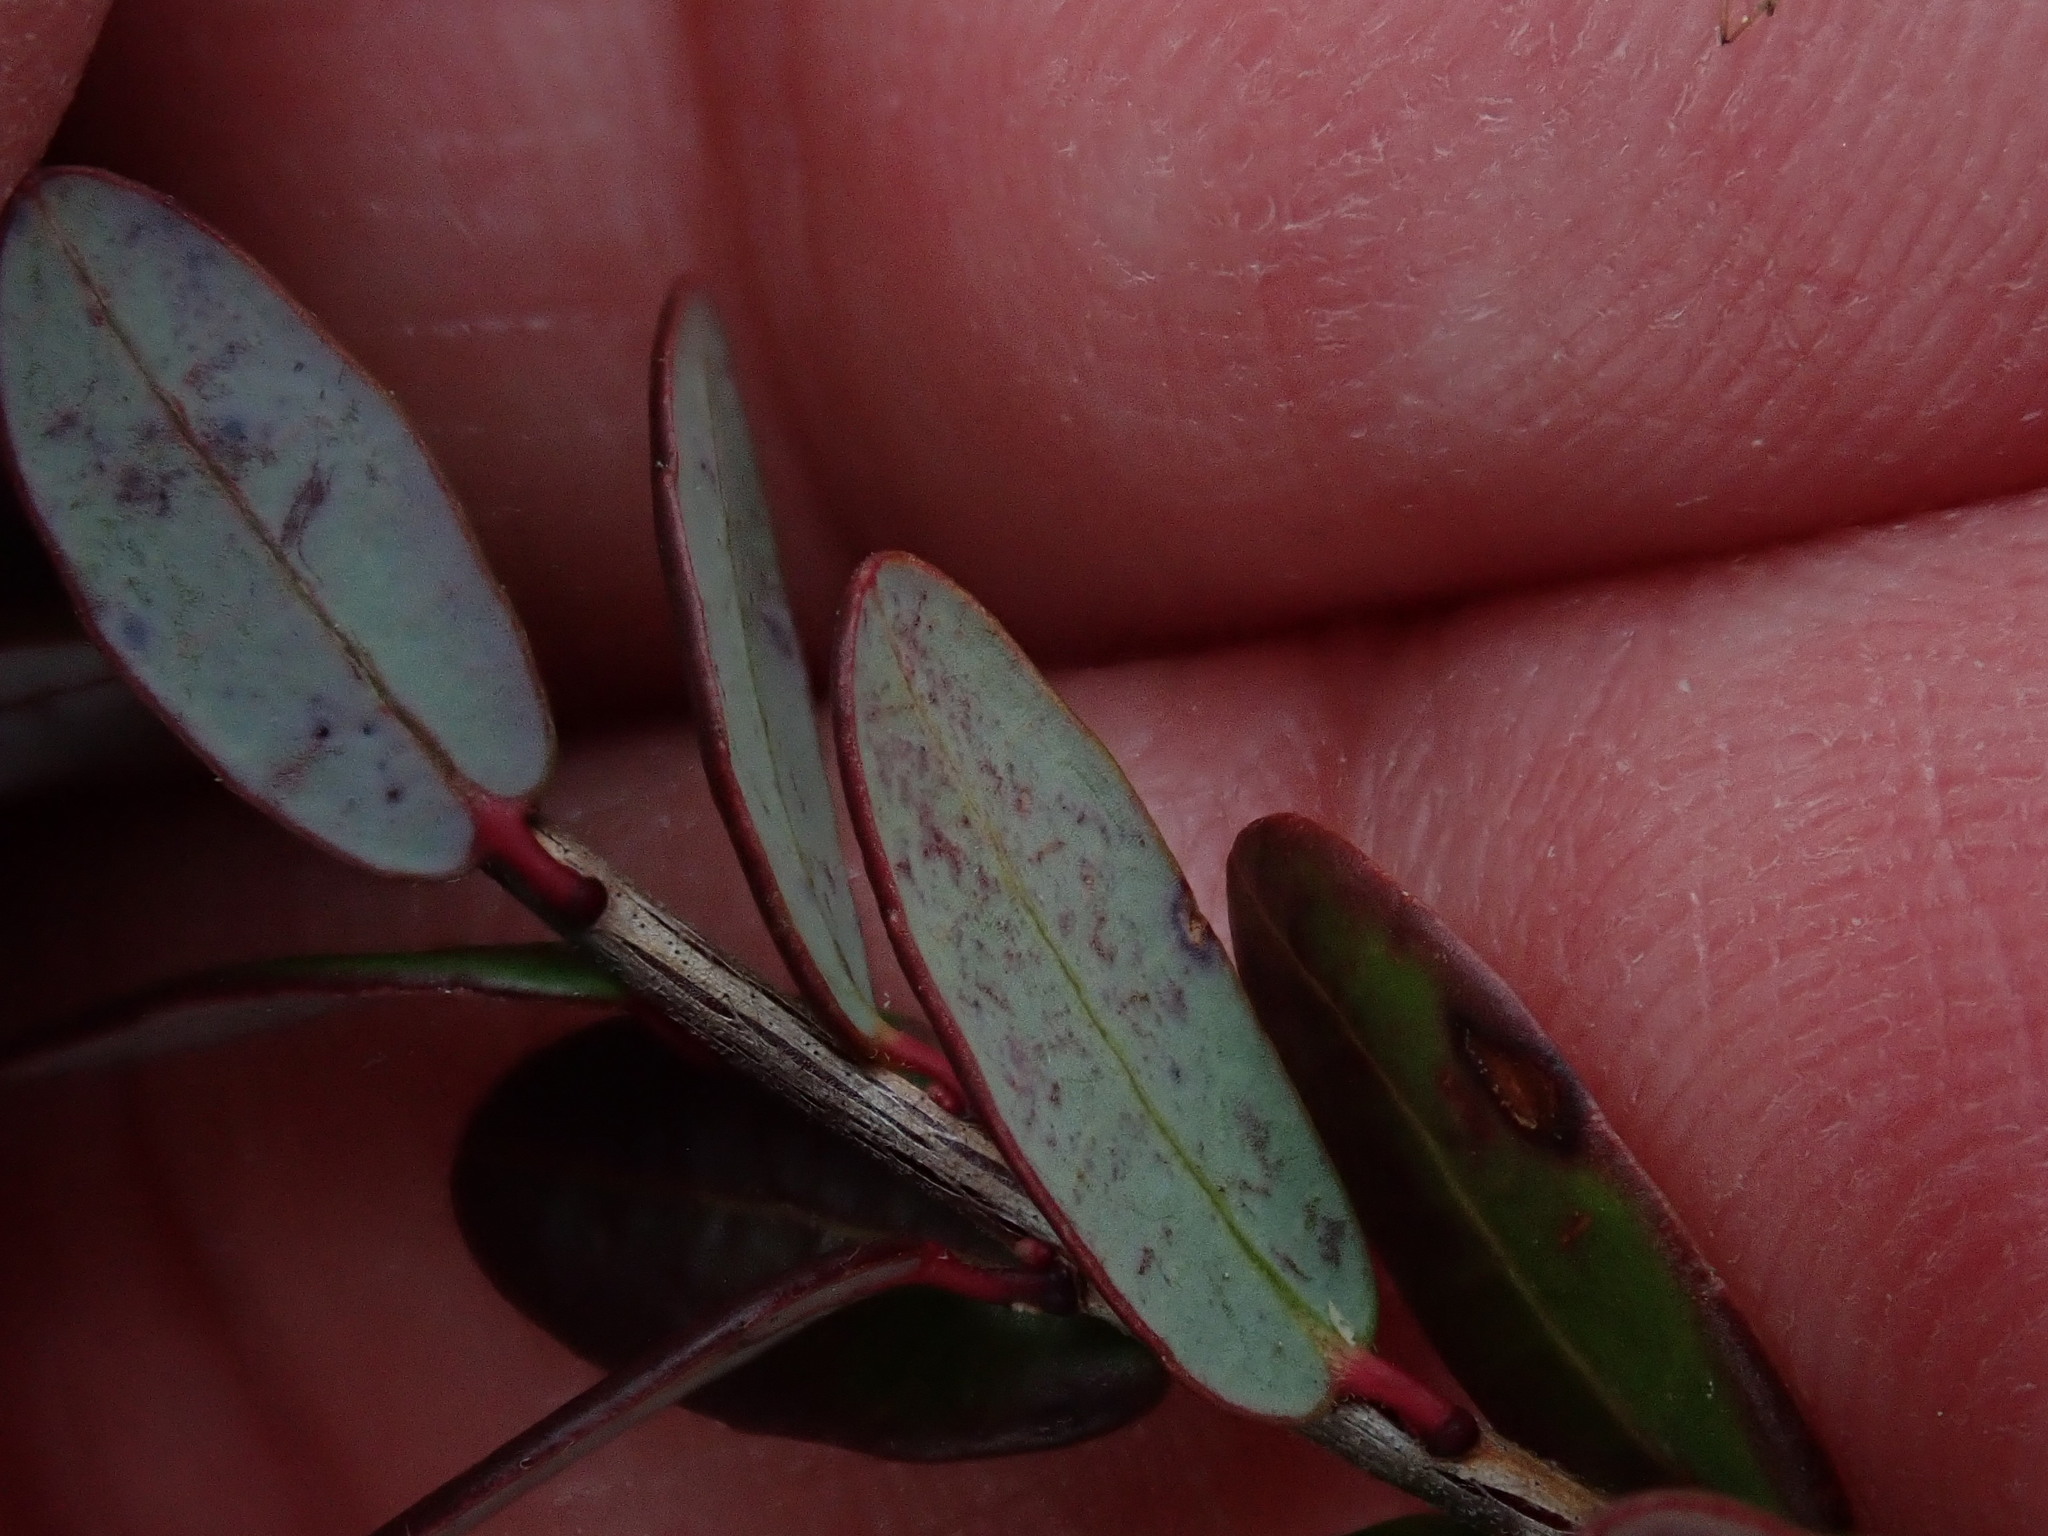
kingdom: Plantae
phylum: Tracheophyta
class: Magnoliopsida
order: Ericales
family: Ericaceae
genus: Vaccinium
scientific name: Vaccinium macrocarpon
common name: American cranberry
